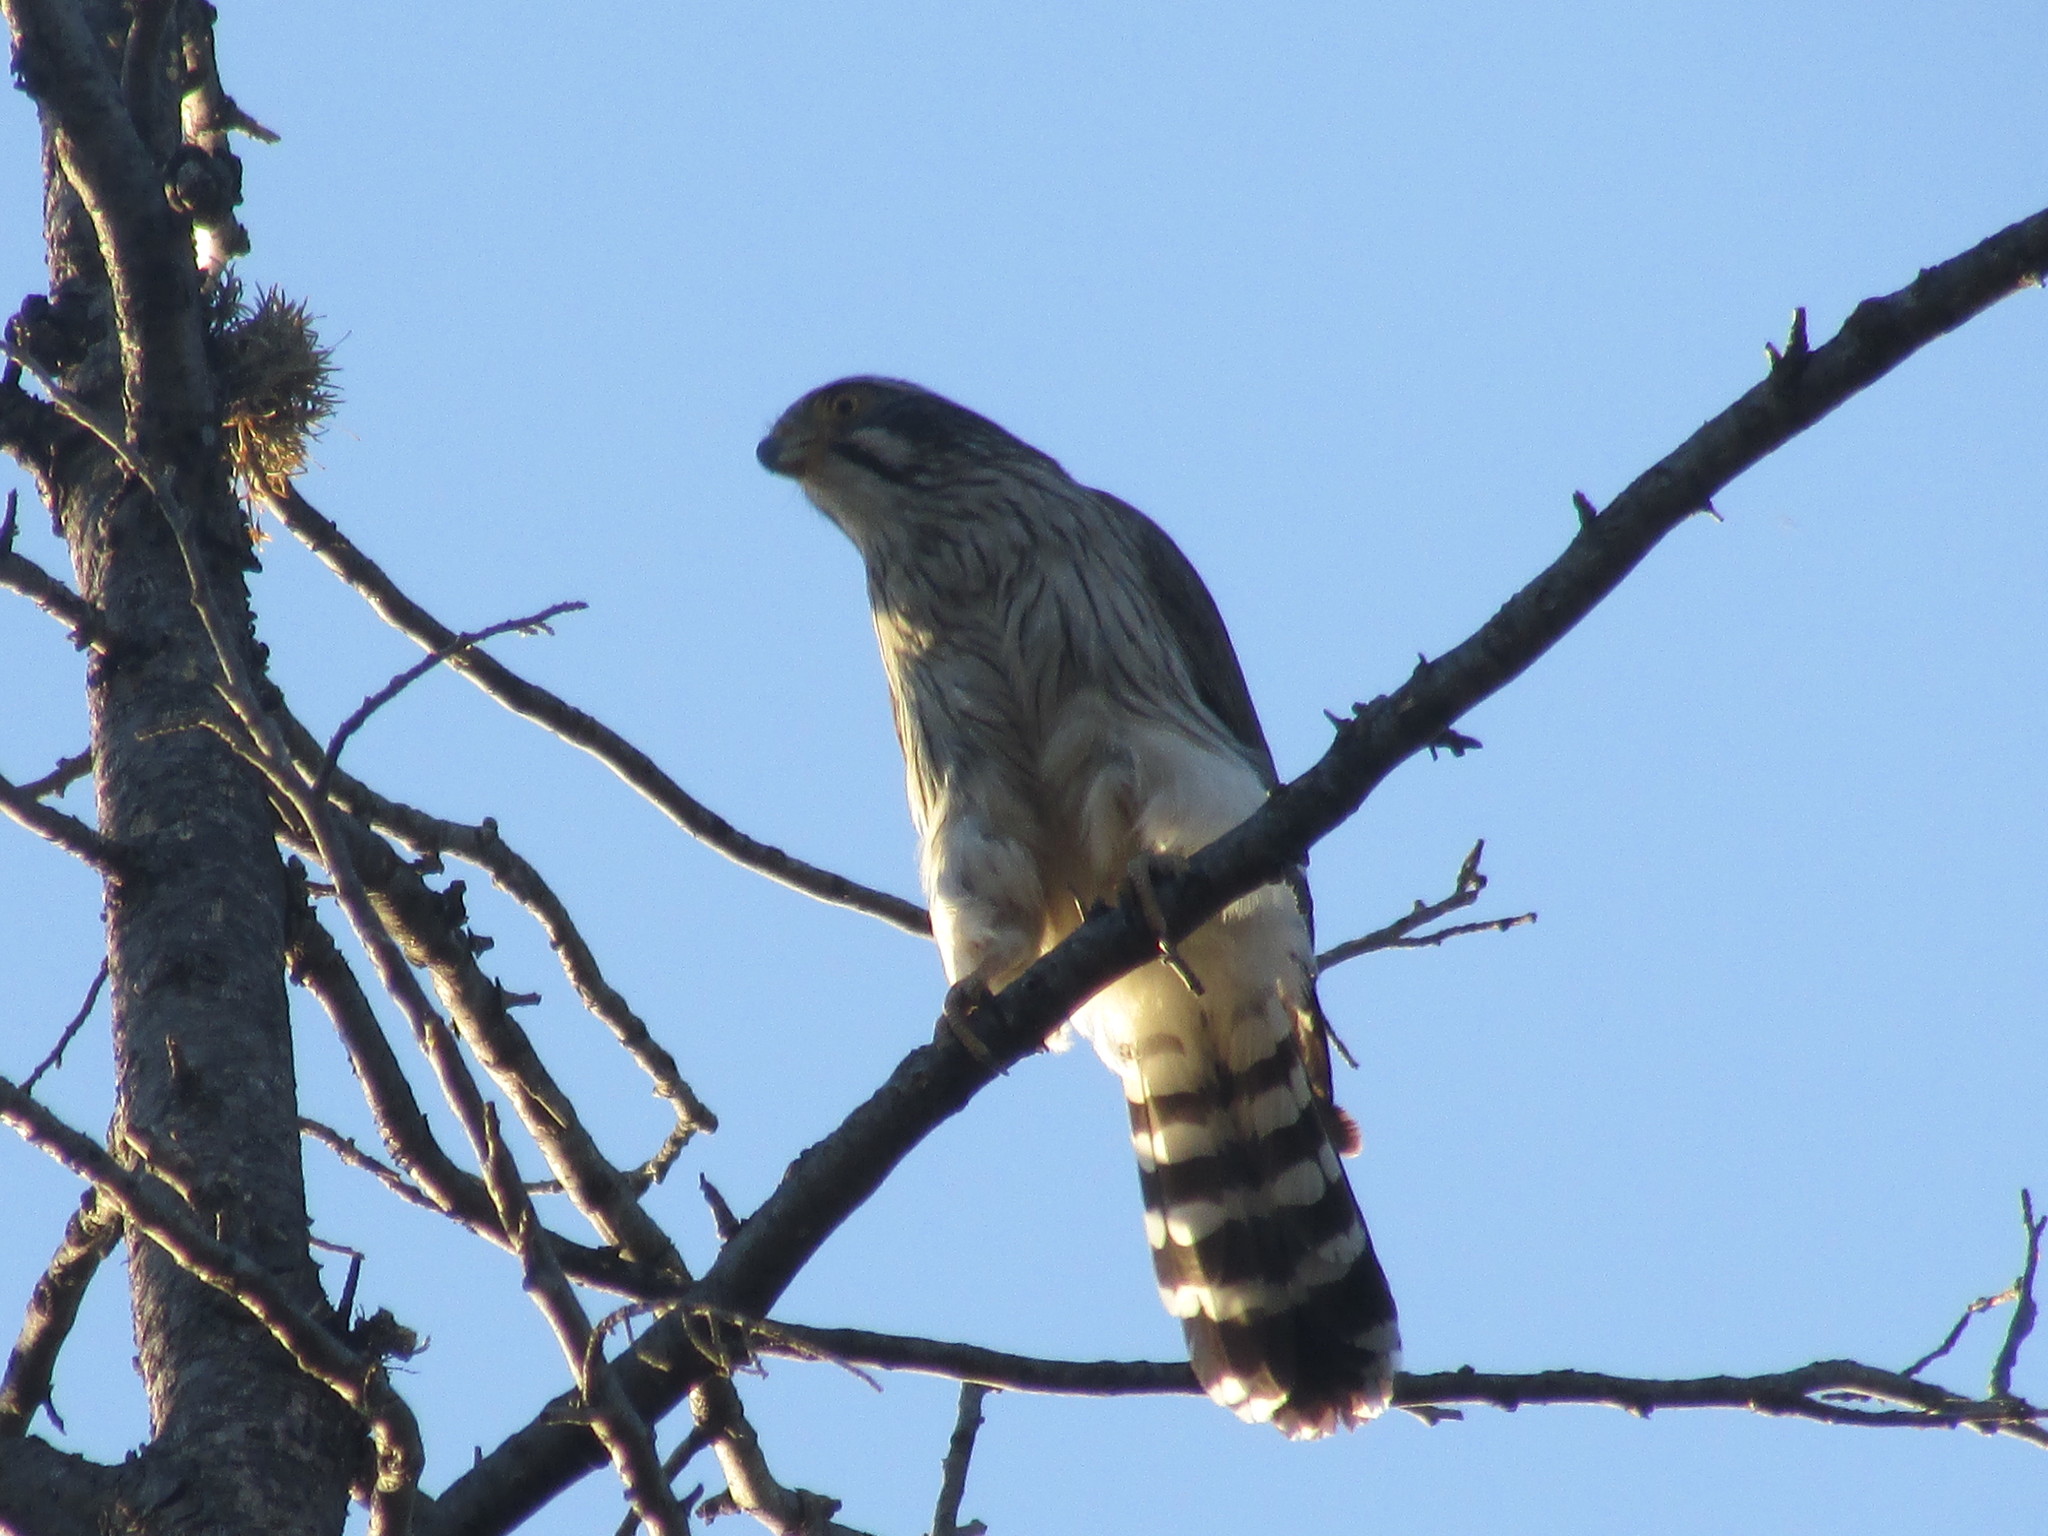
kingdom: Animalia
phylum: Chordata
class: Aves
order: Falconiformes
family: Falconidae
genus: Spiziapteryx
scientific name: Spiziapteryx circumcincta
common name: Spot-winged falconet
